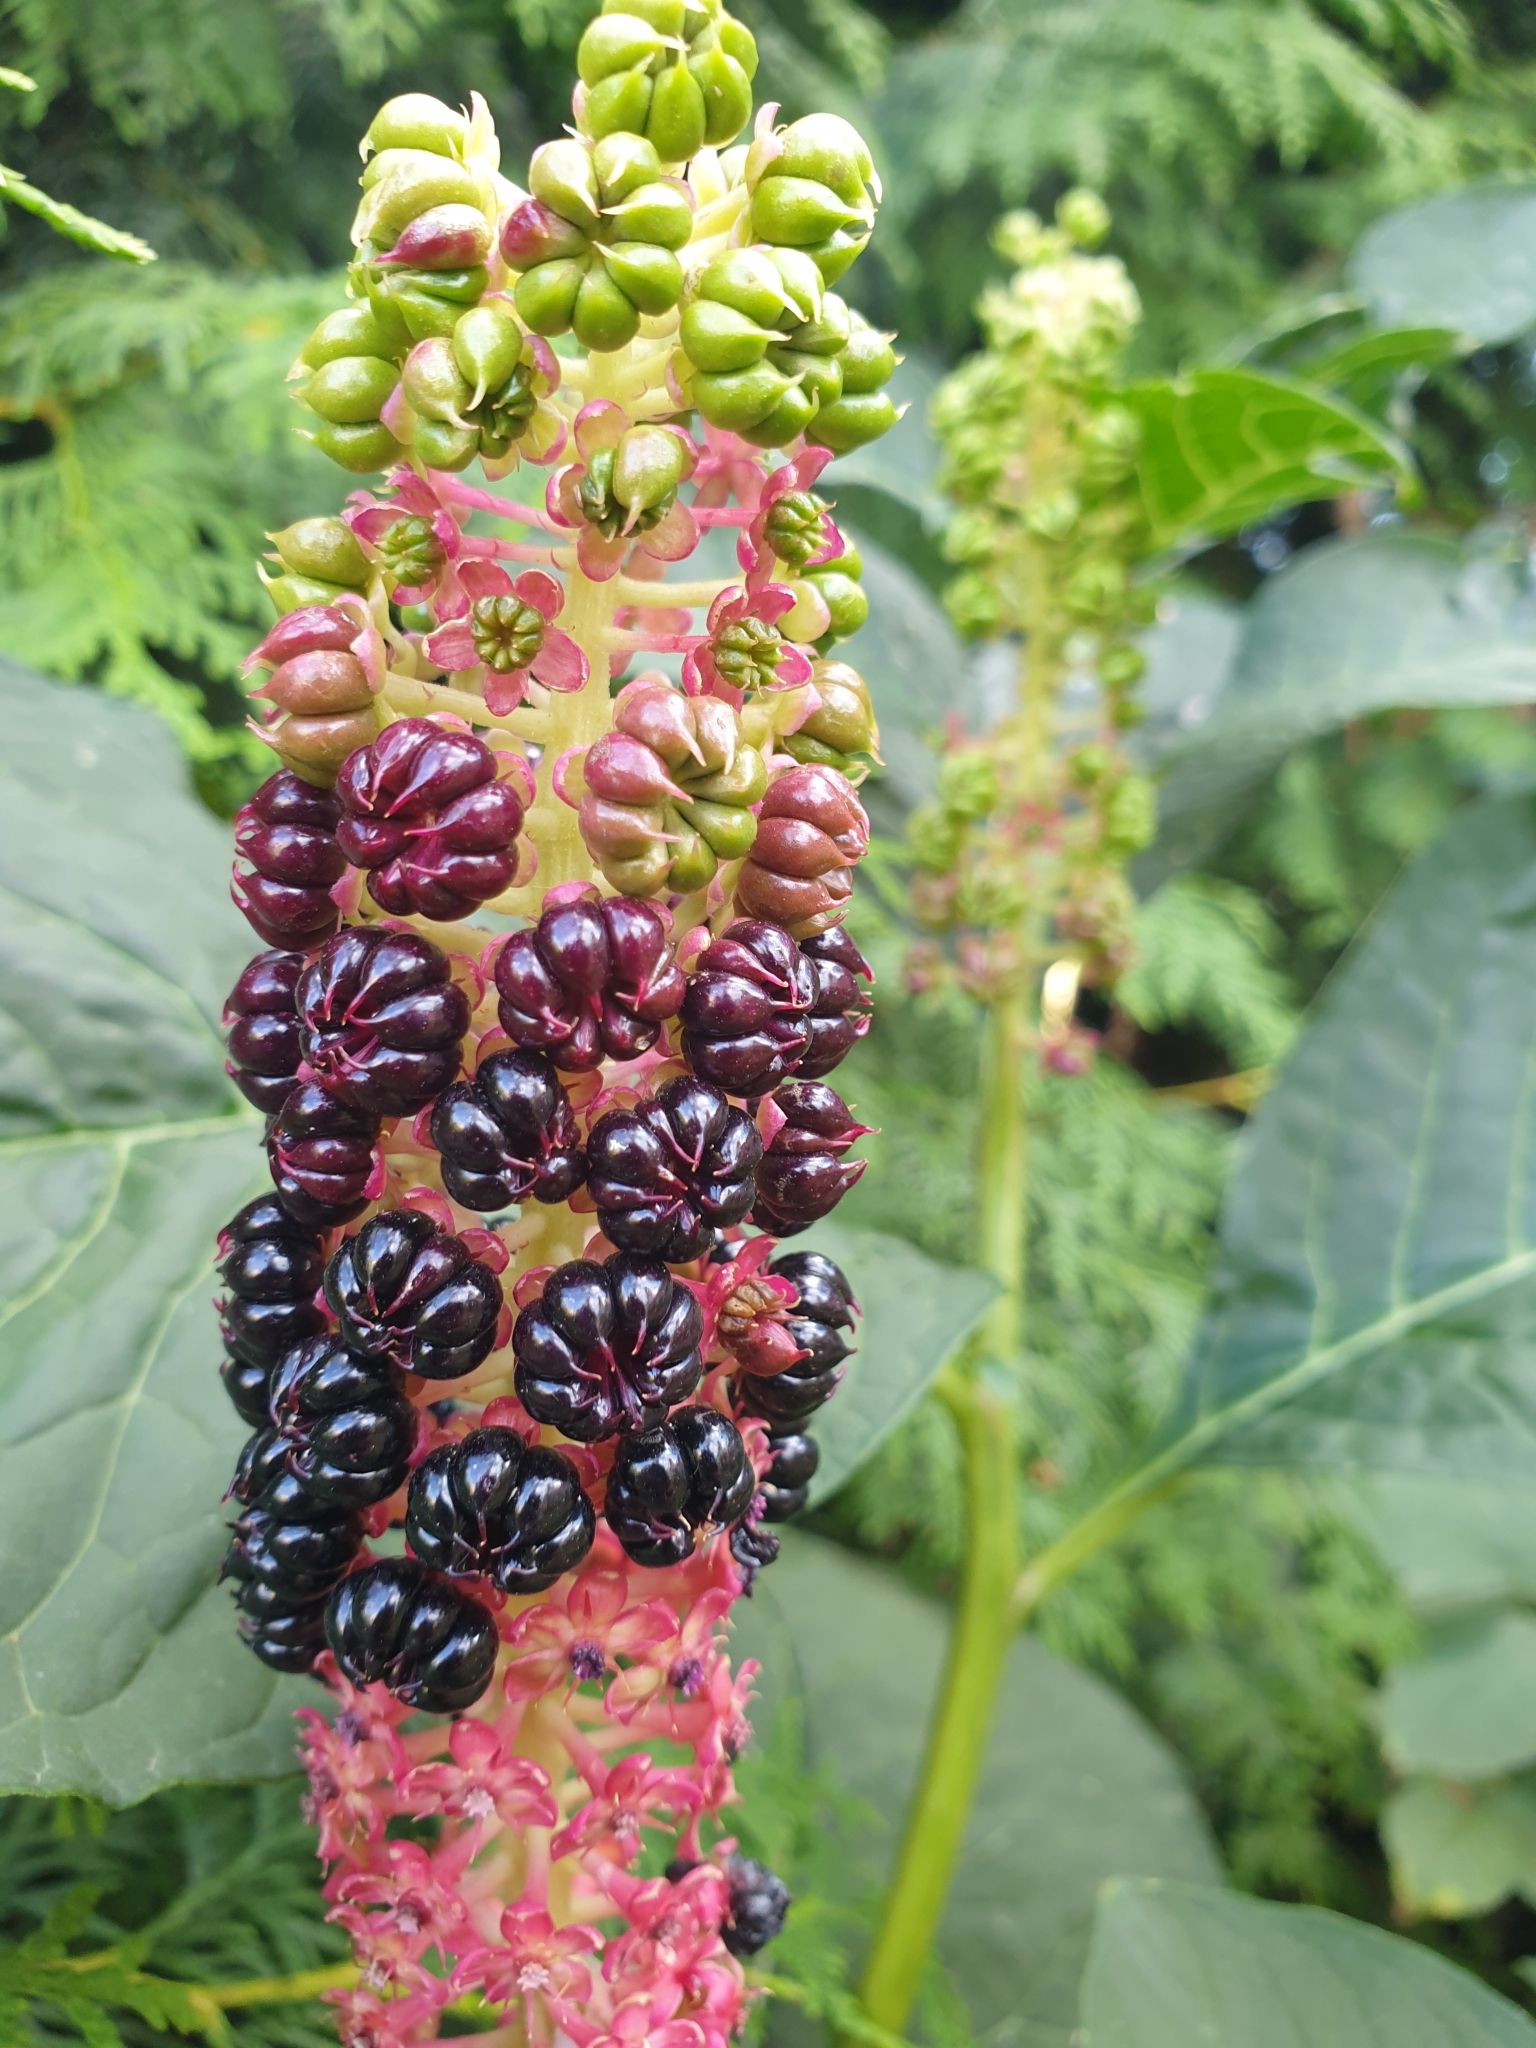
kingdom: Plantae
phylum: Tracheophyta
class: Magnoliopsida
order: Caryophyllales
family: Phytolaccaceae
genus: Phytolacca
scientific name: Phytolacca acinosa
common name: Indian pokeweed
